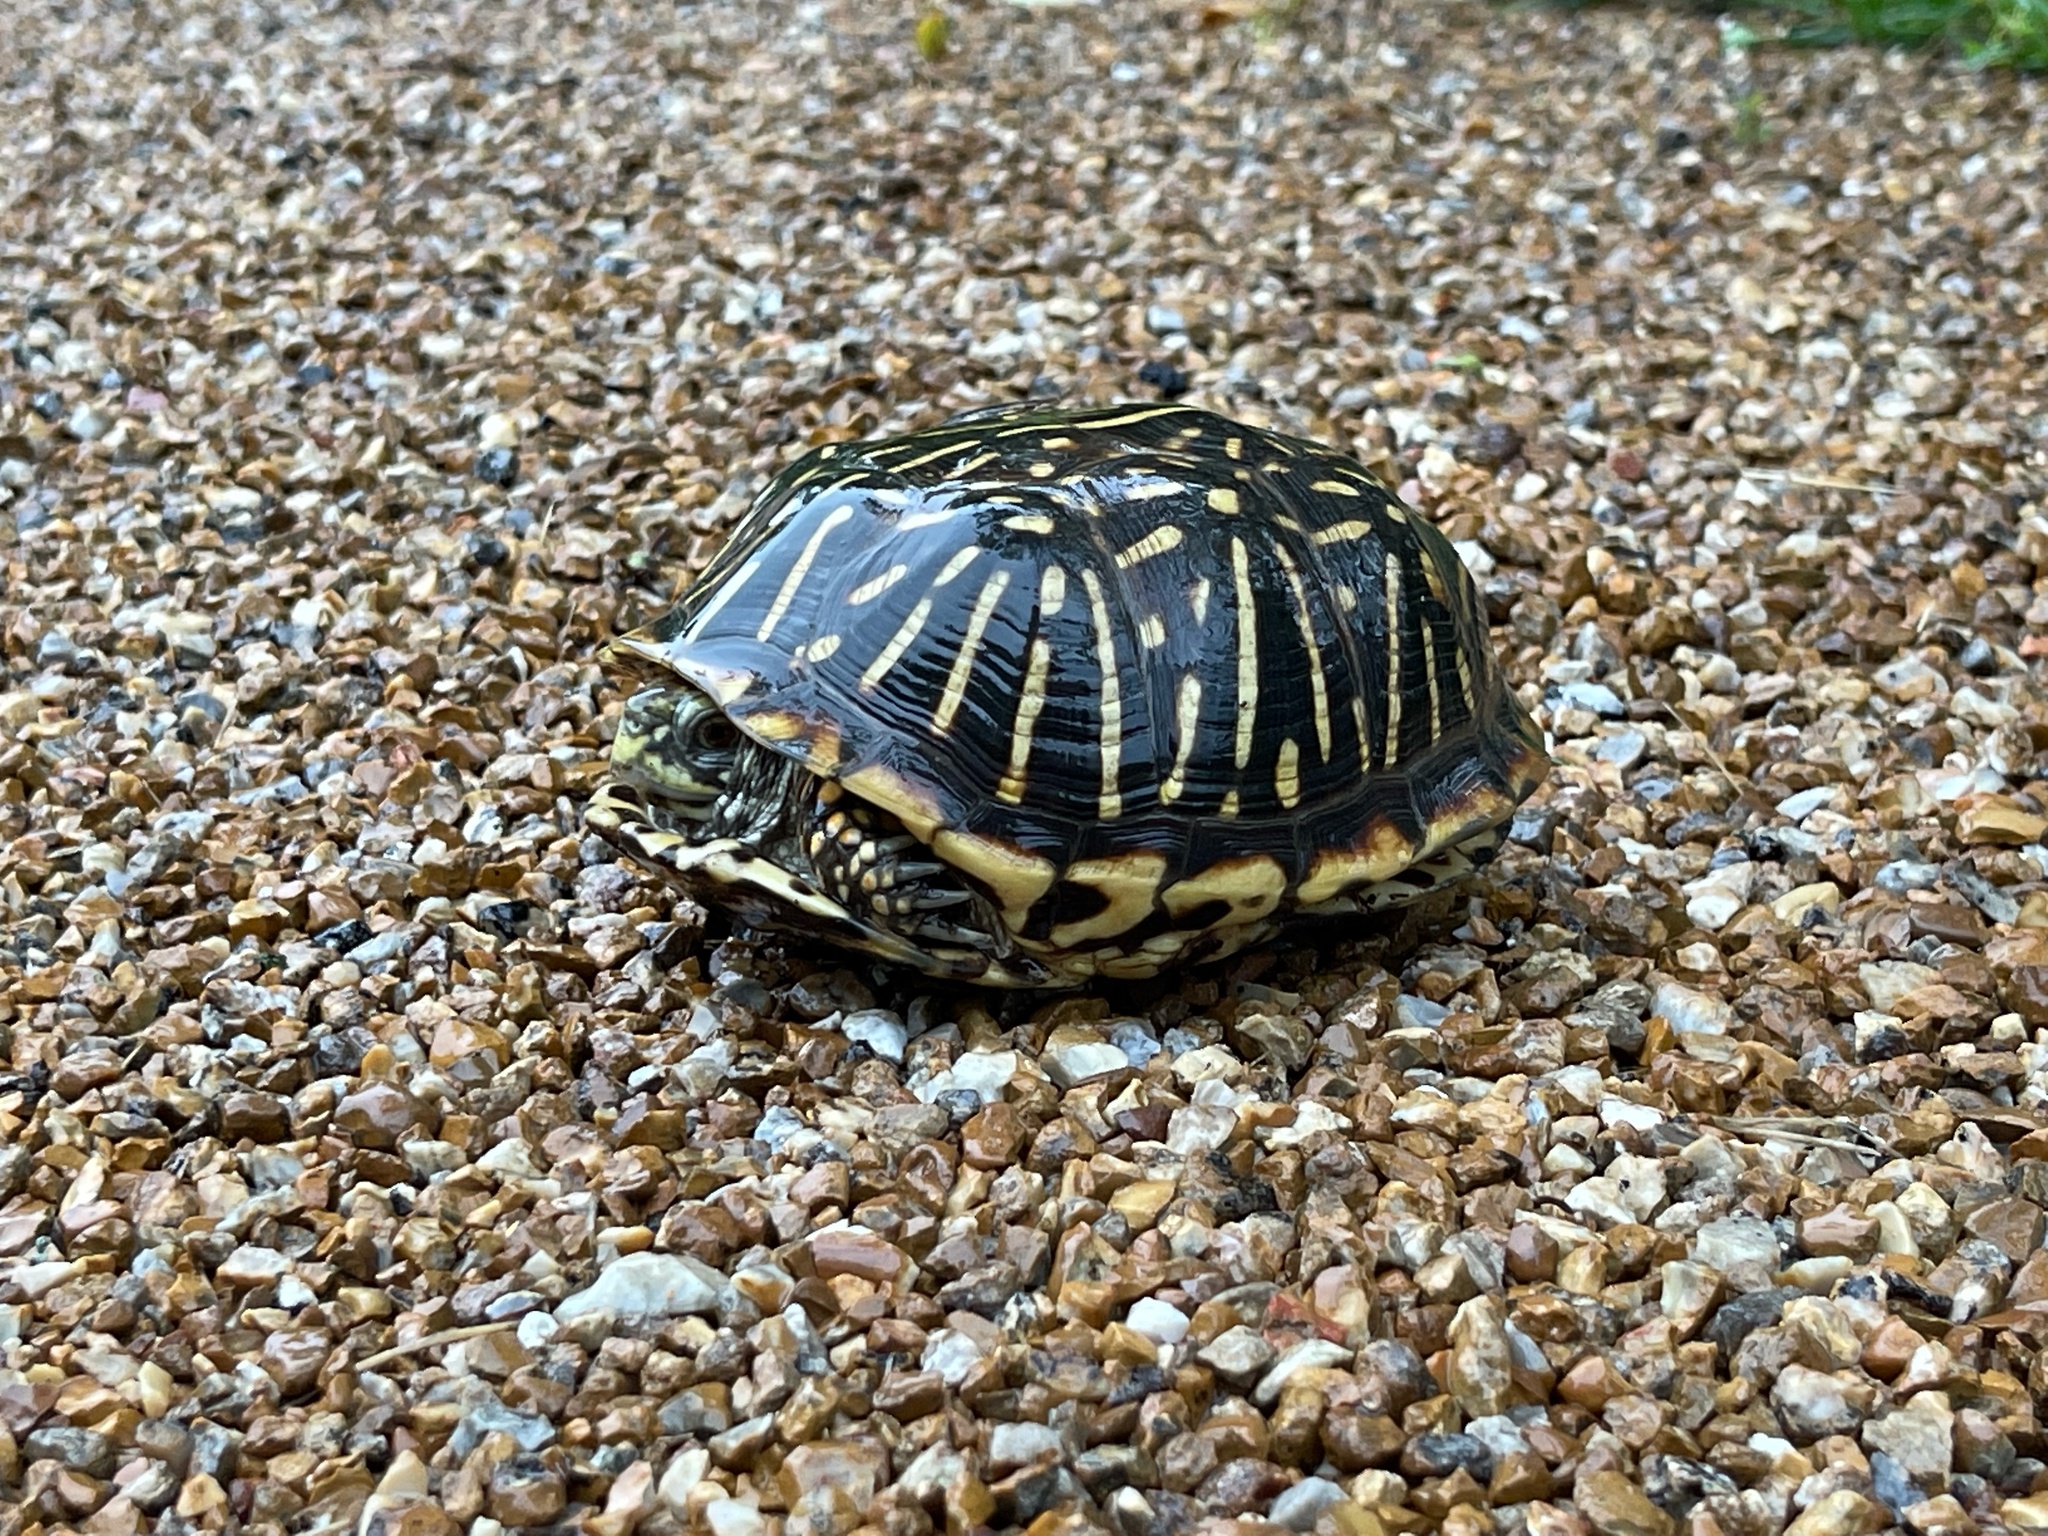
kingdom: Animalia
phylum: Chordata
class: Testudines
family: Emydidae
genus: Terrapene
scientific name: Terrapene ornata
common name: Western box turtle
